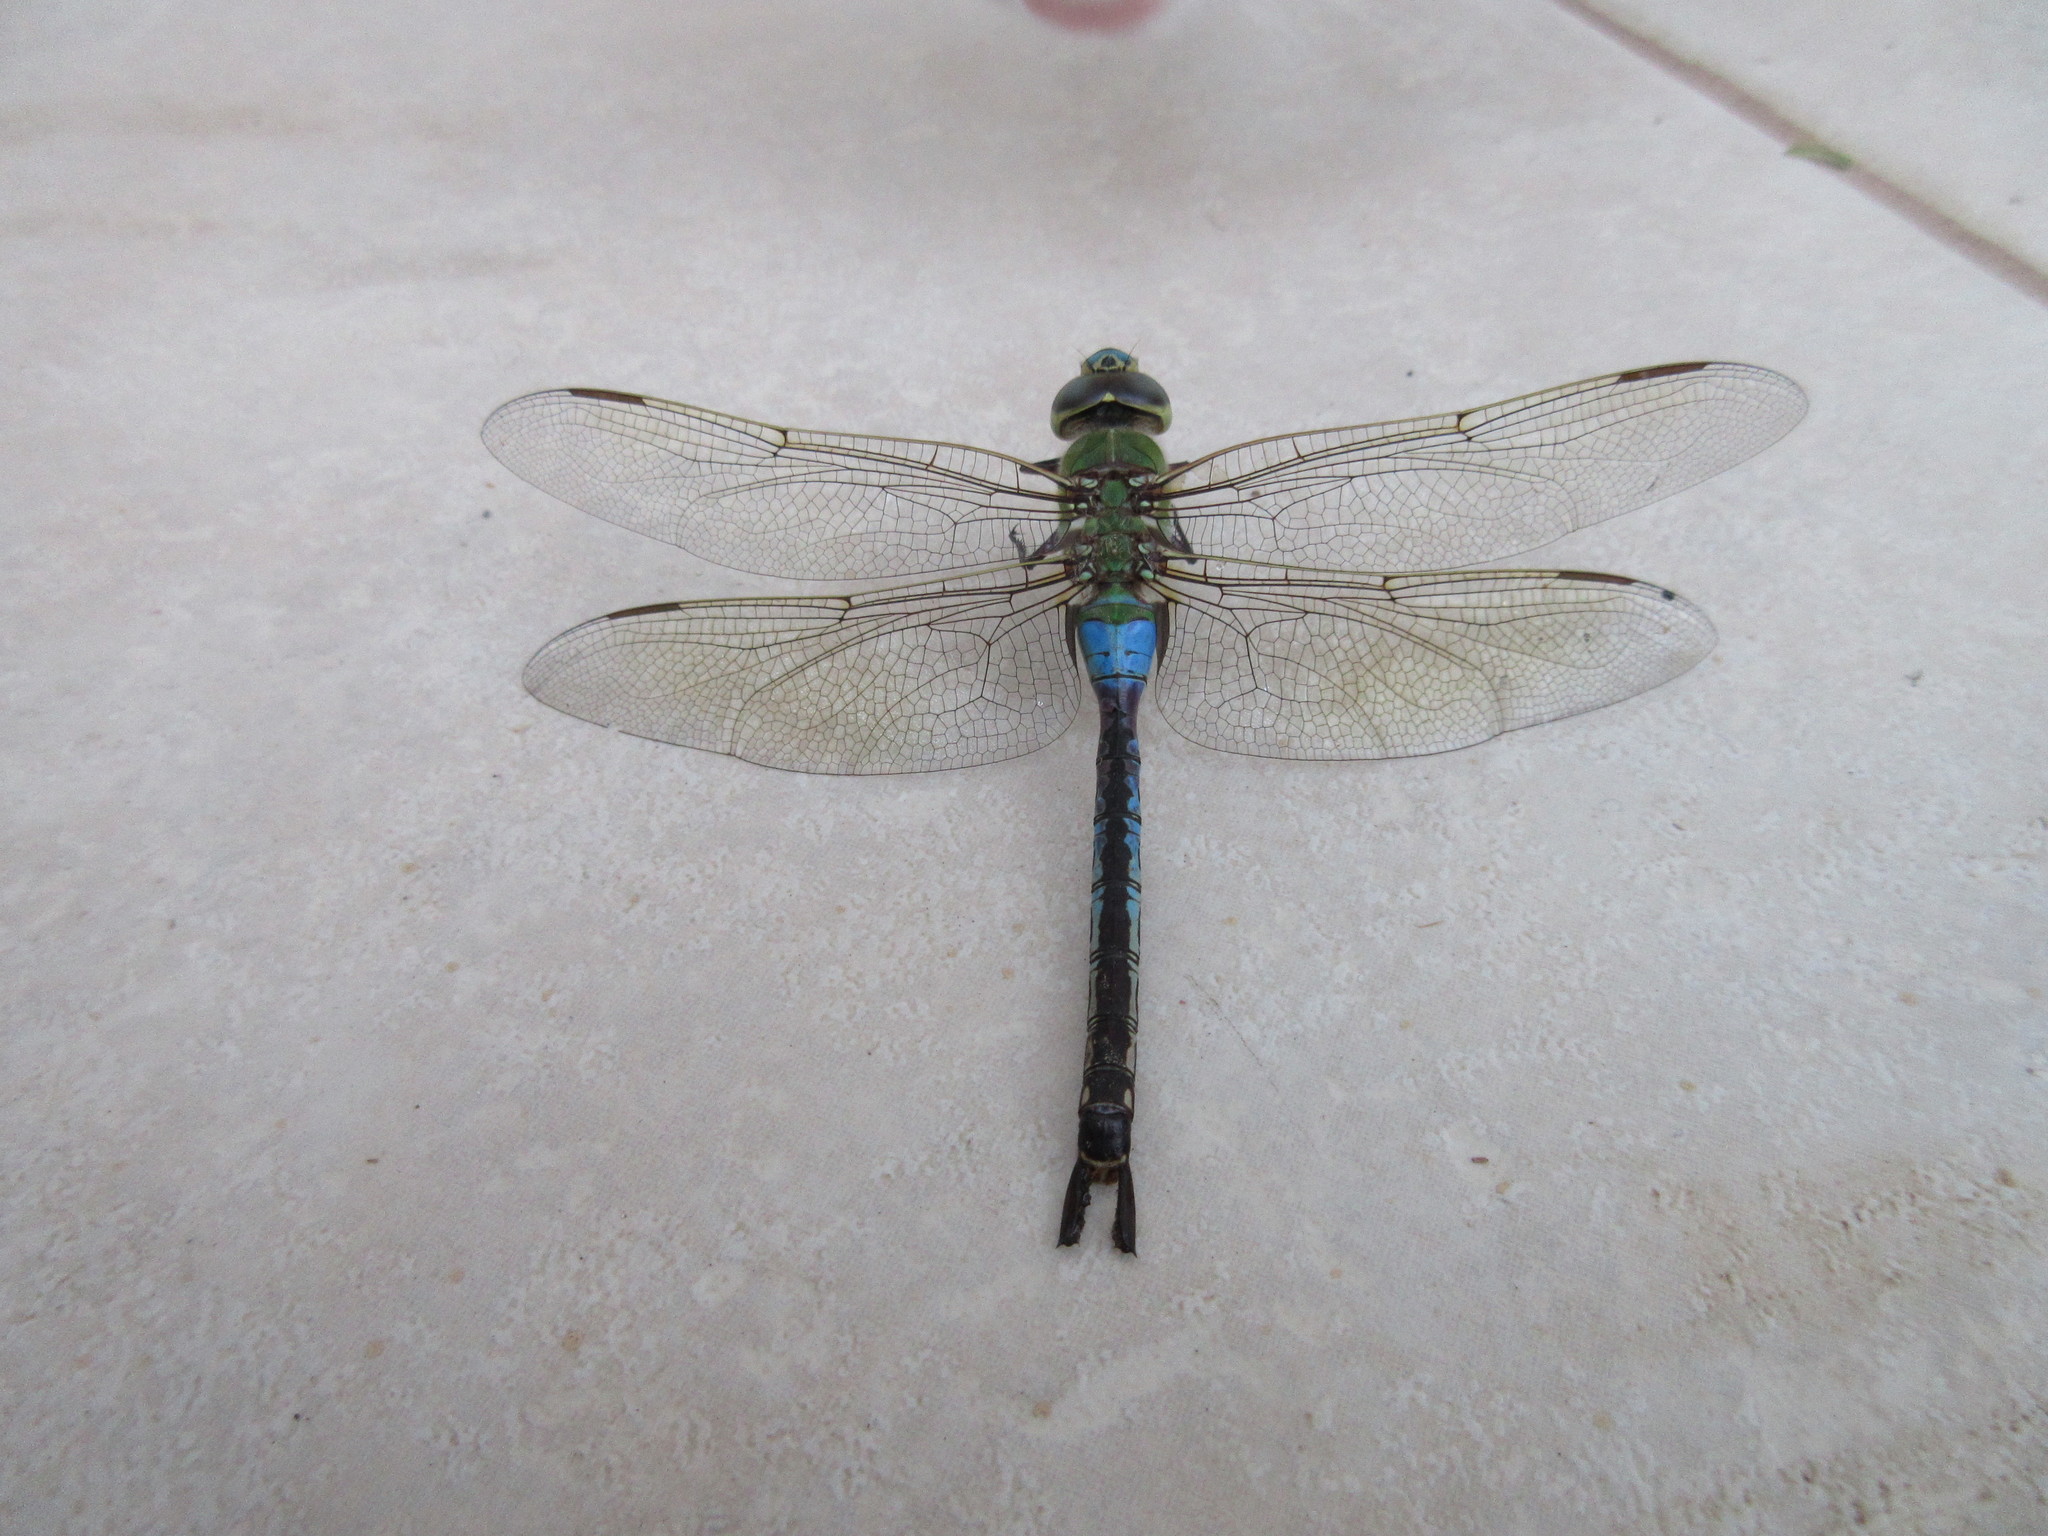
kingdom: Animalia
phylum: Arthropoda
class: Insecta
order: Odonata
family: Aeshnidae
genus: Anax
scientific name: Anax junius
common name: Common green darner
